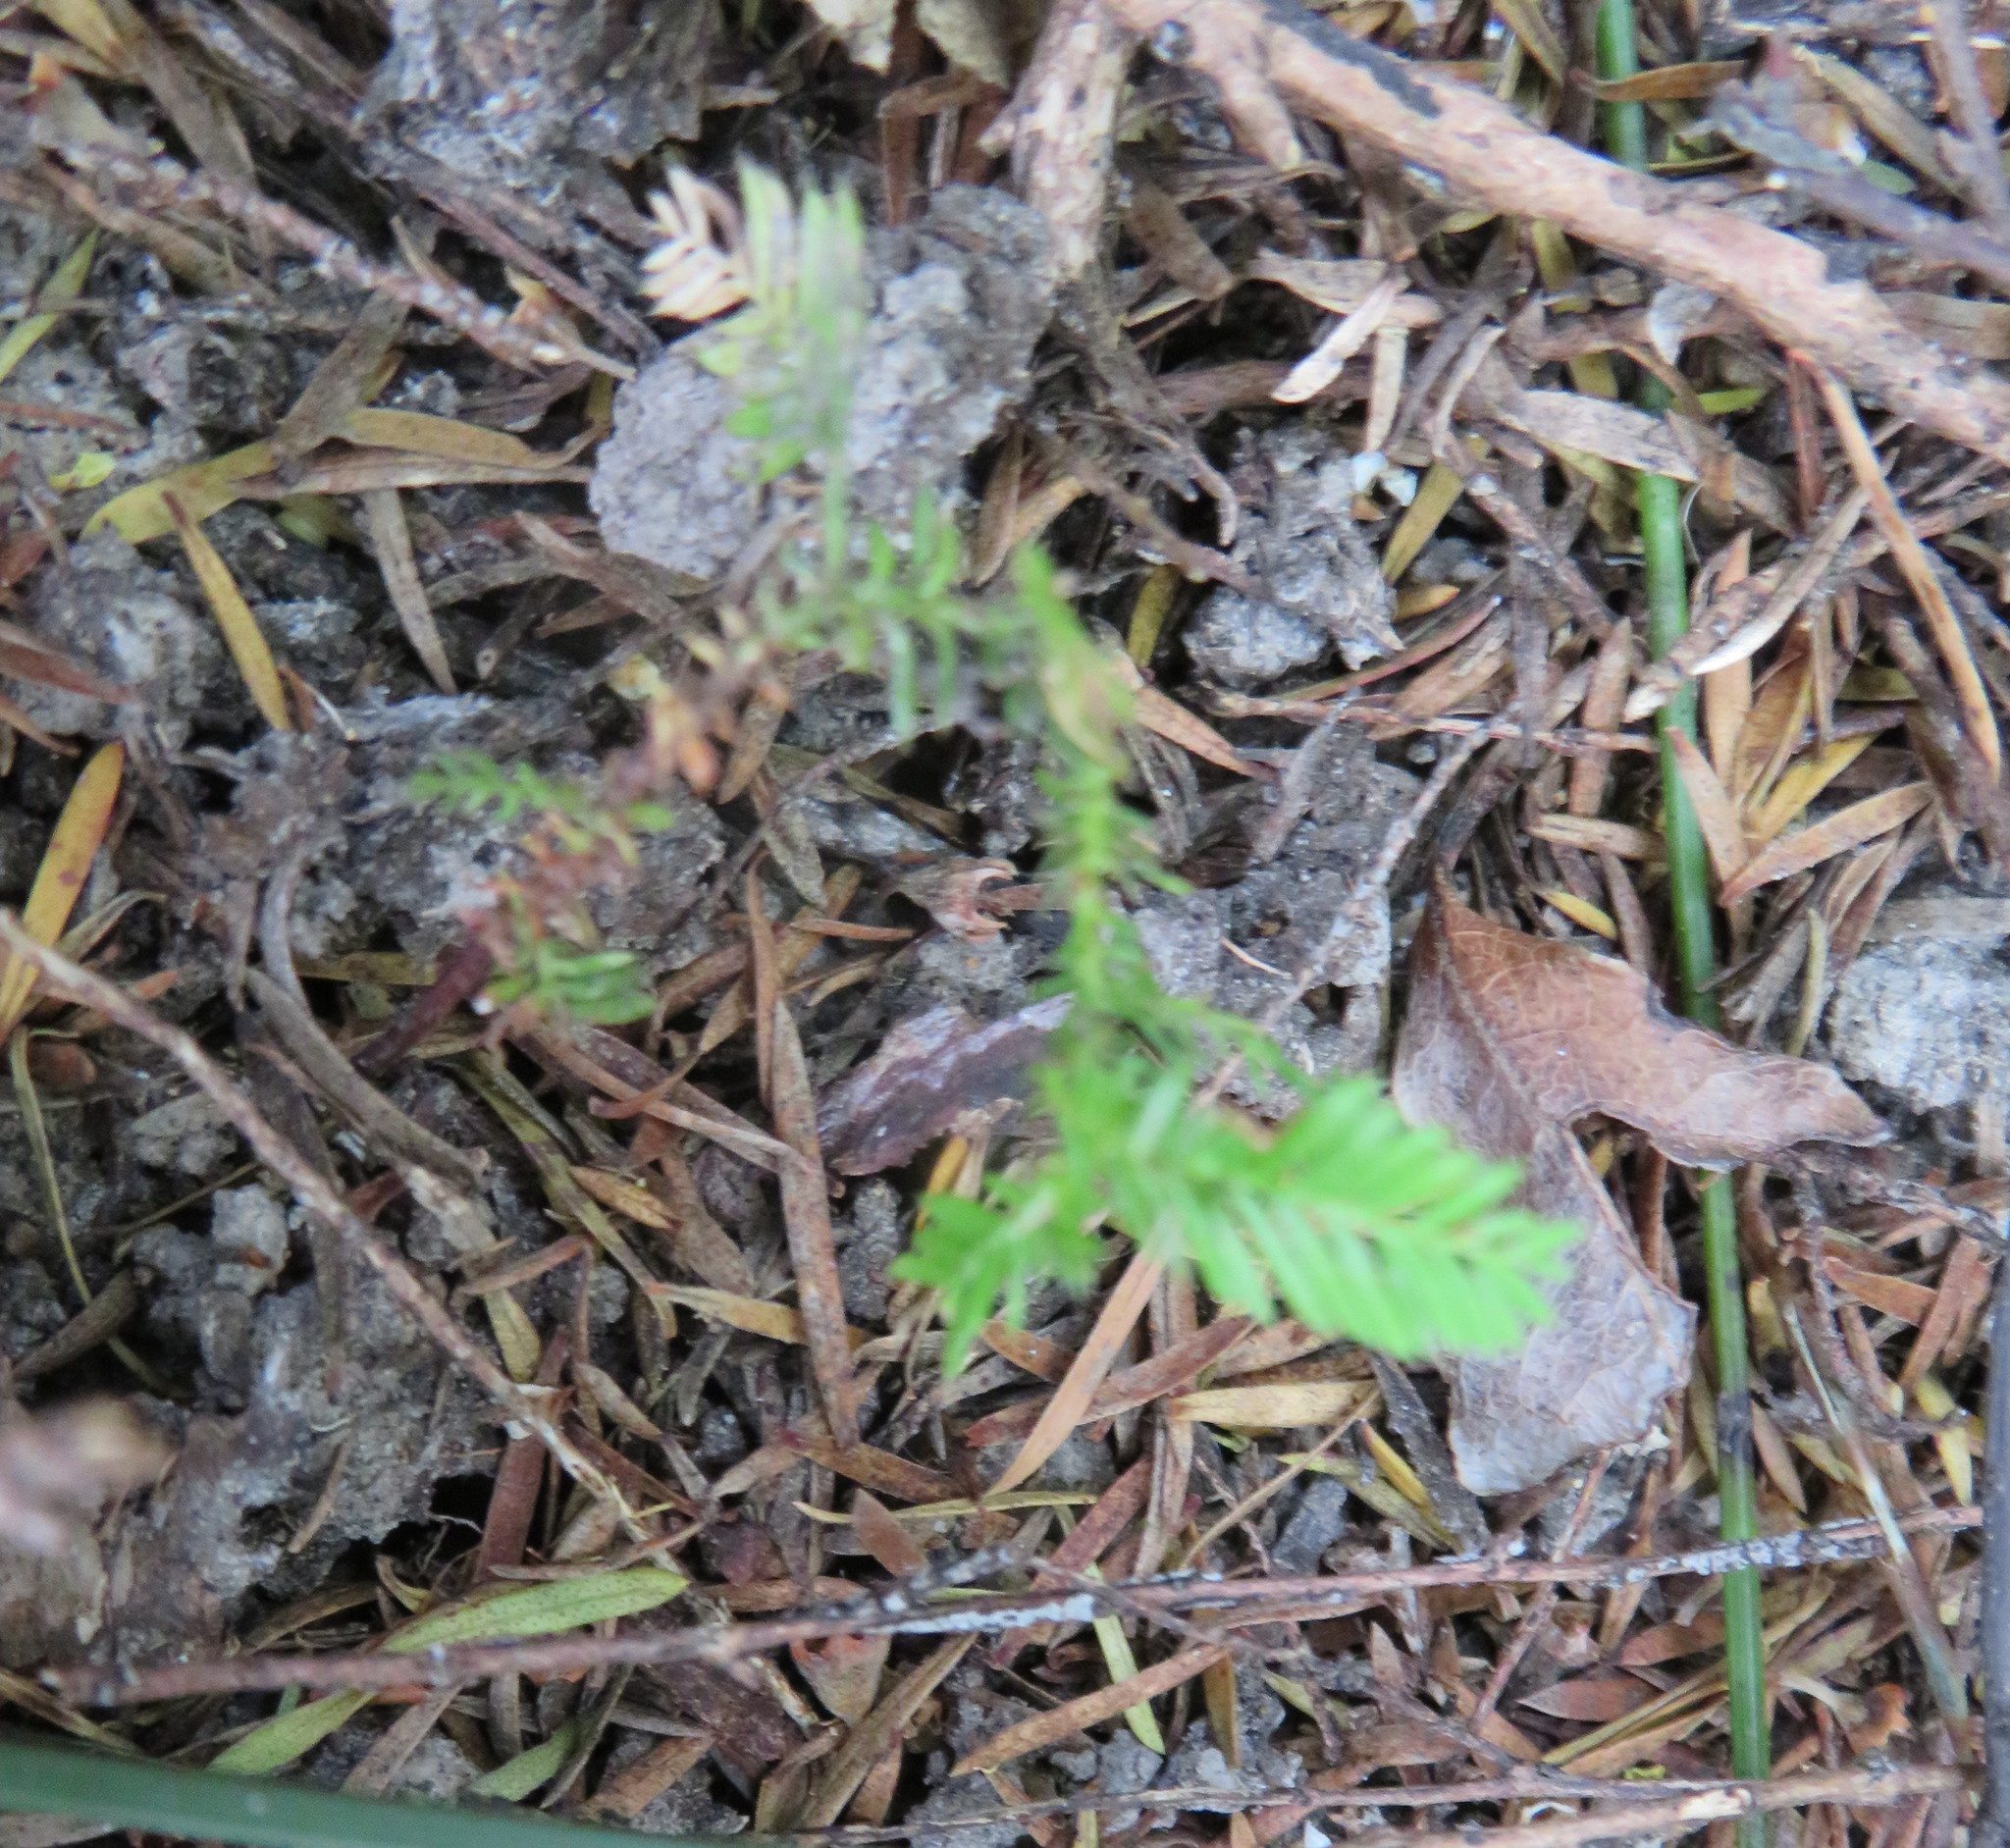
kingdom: Plantae
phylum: Tracheophyta
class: Pinopsida
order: Pinales
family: Podocarpaceae
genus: Dacrycarpus
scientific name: Dacrycarpus dacrydioides
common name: White pine
